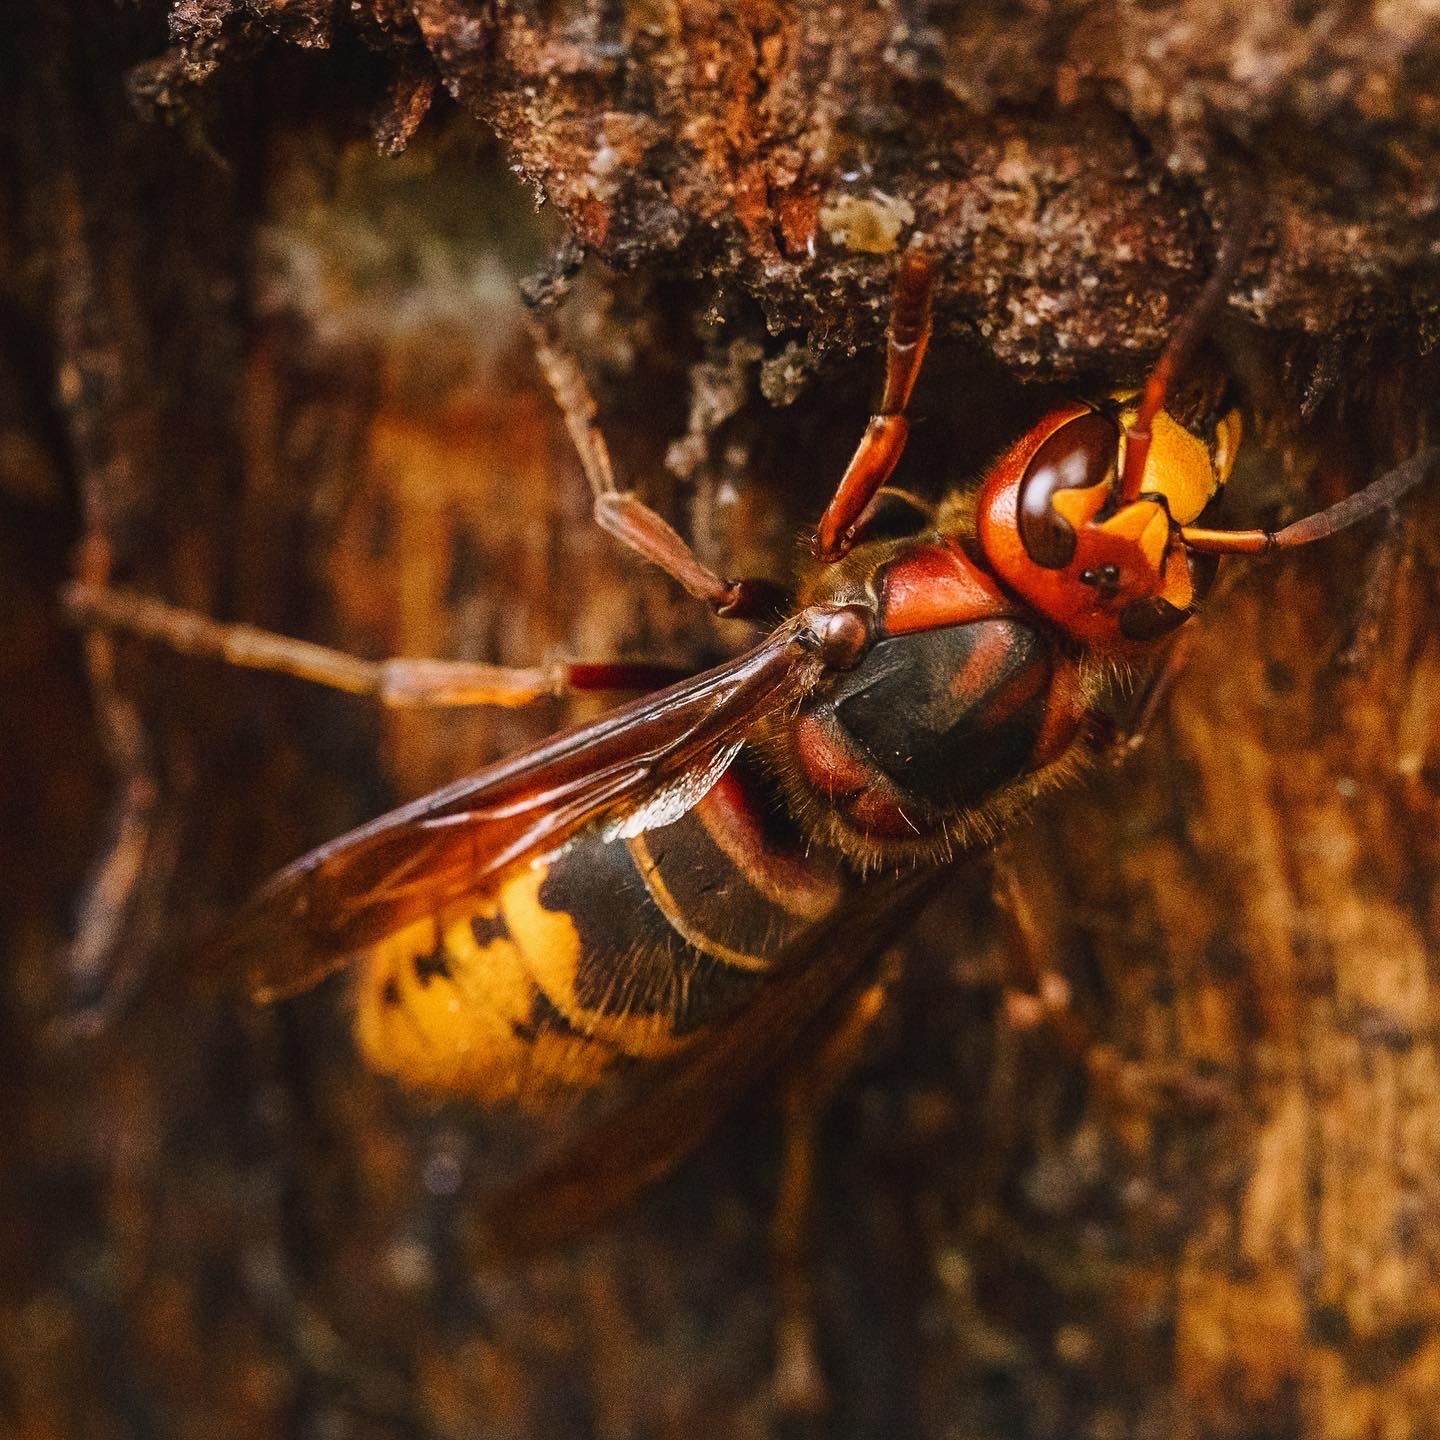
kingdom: Animalia
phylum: Arthropoda
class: Insecta
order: Hymenoptera
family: Vespidae
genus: Vespa
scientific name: Vespa crabro
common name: Hornet
